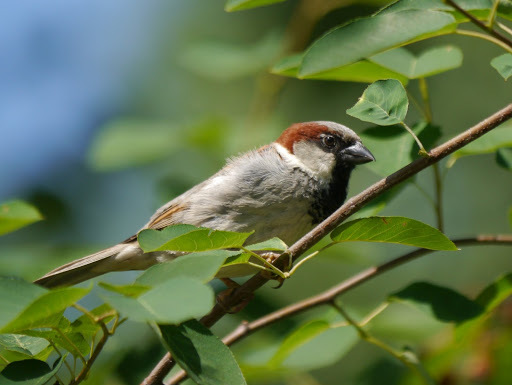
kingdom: Animalia
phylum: Chordata
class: Aves
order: Passeriformes
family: Passeridae
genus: Passer
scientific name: Passer domesticus
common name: House sparrow
